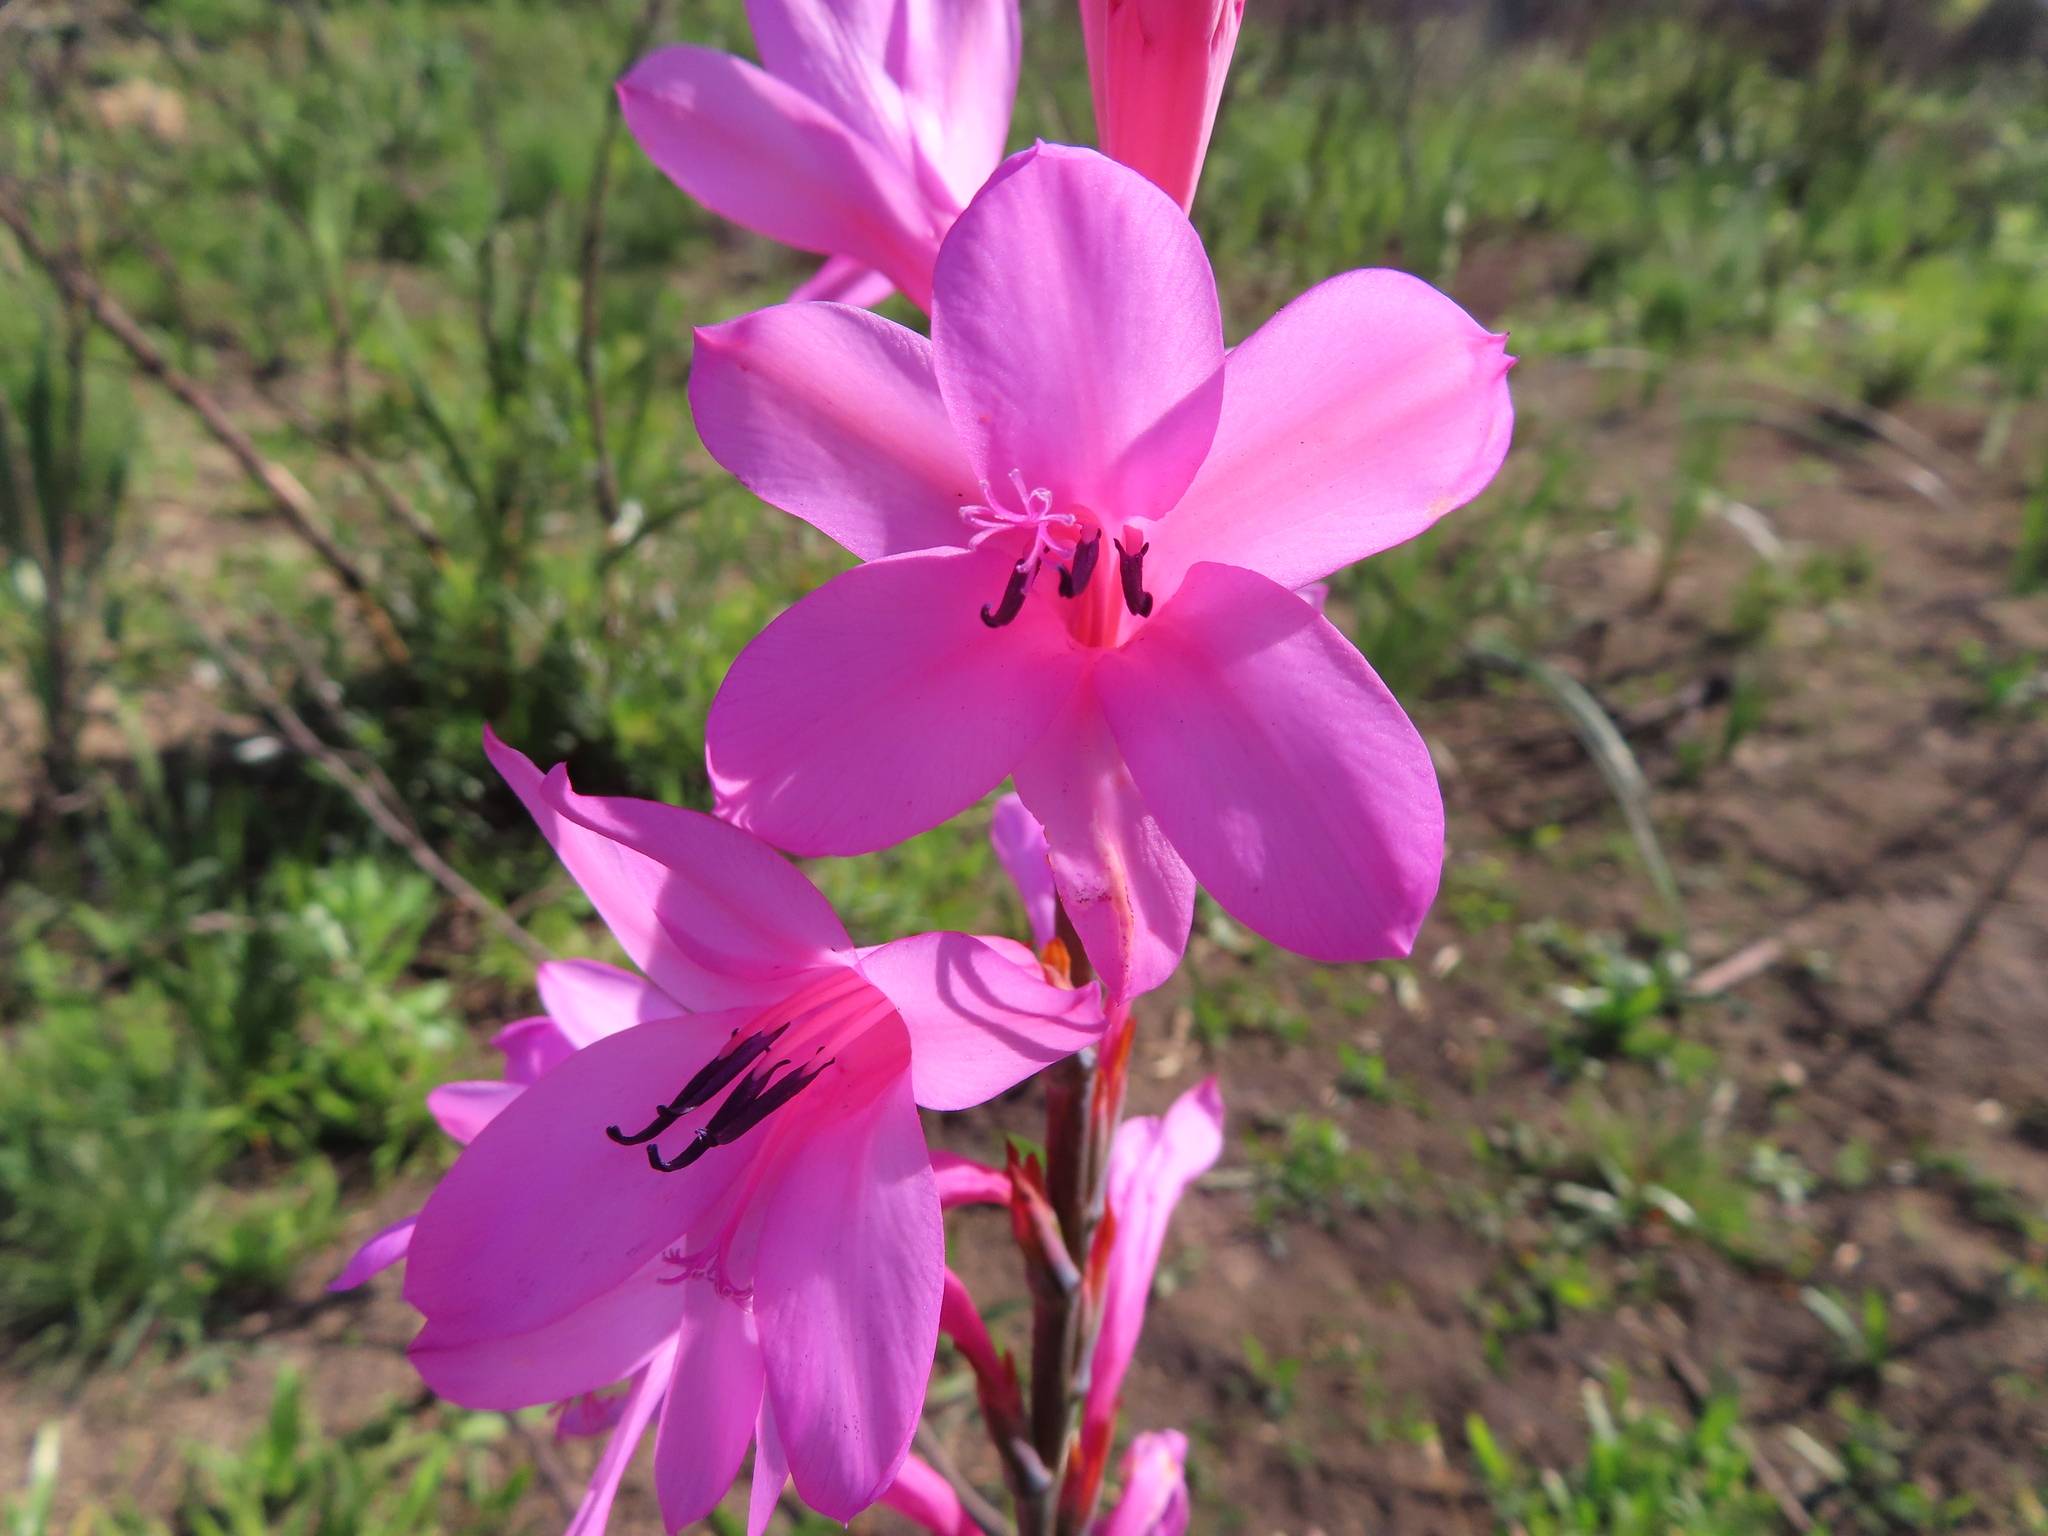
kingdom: Plantae
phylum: Tracheophyta
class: Liliopsida
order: Asparagales
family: Iridaceae
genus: Watsonia
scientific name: Watsonia borbonica
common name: Bugle-lily
